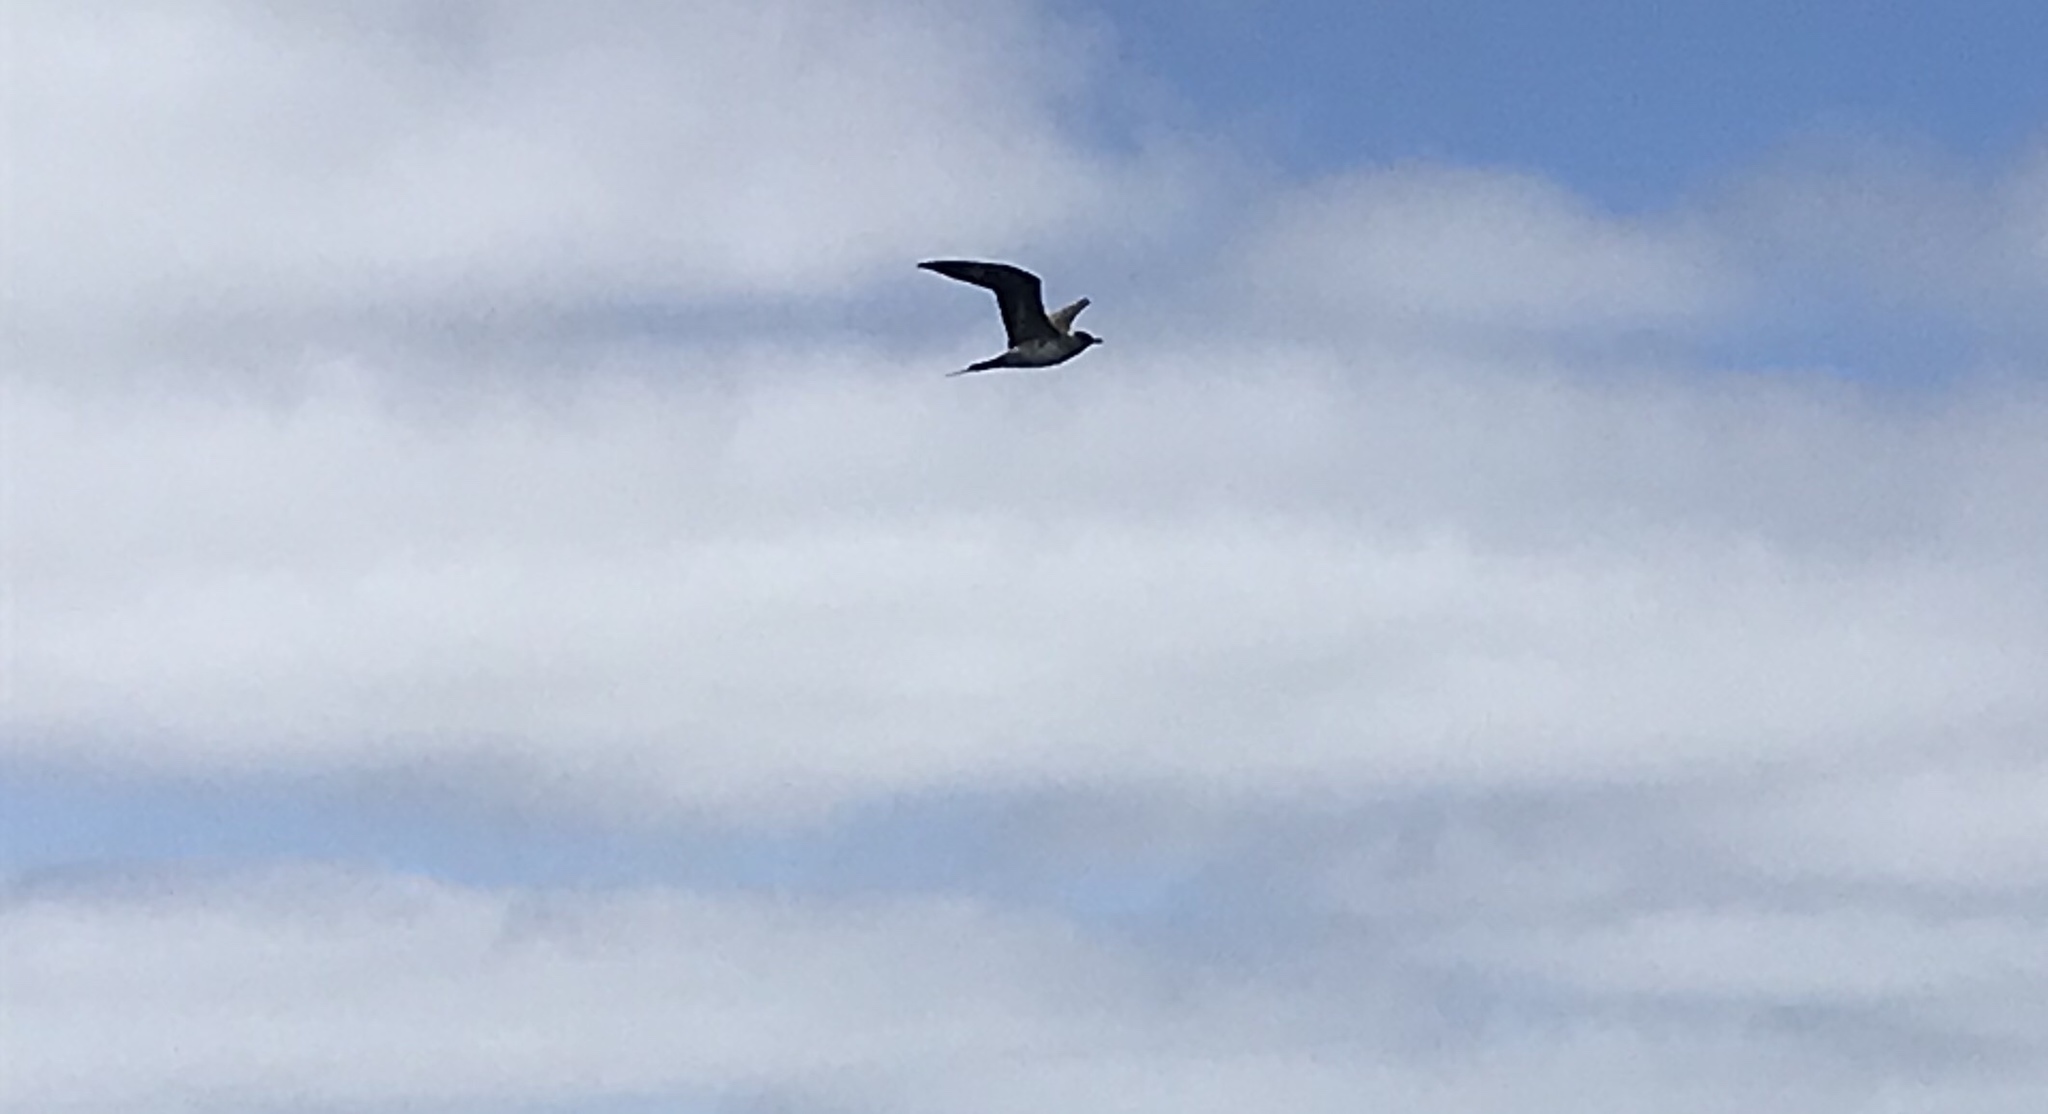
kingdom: Animalia
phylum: Chordata
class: Aves
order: Charadriiformes
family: Stercorariidae
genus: Stercorarius
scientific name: Stercorarius parasiticus
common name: Parasitic jaeger
